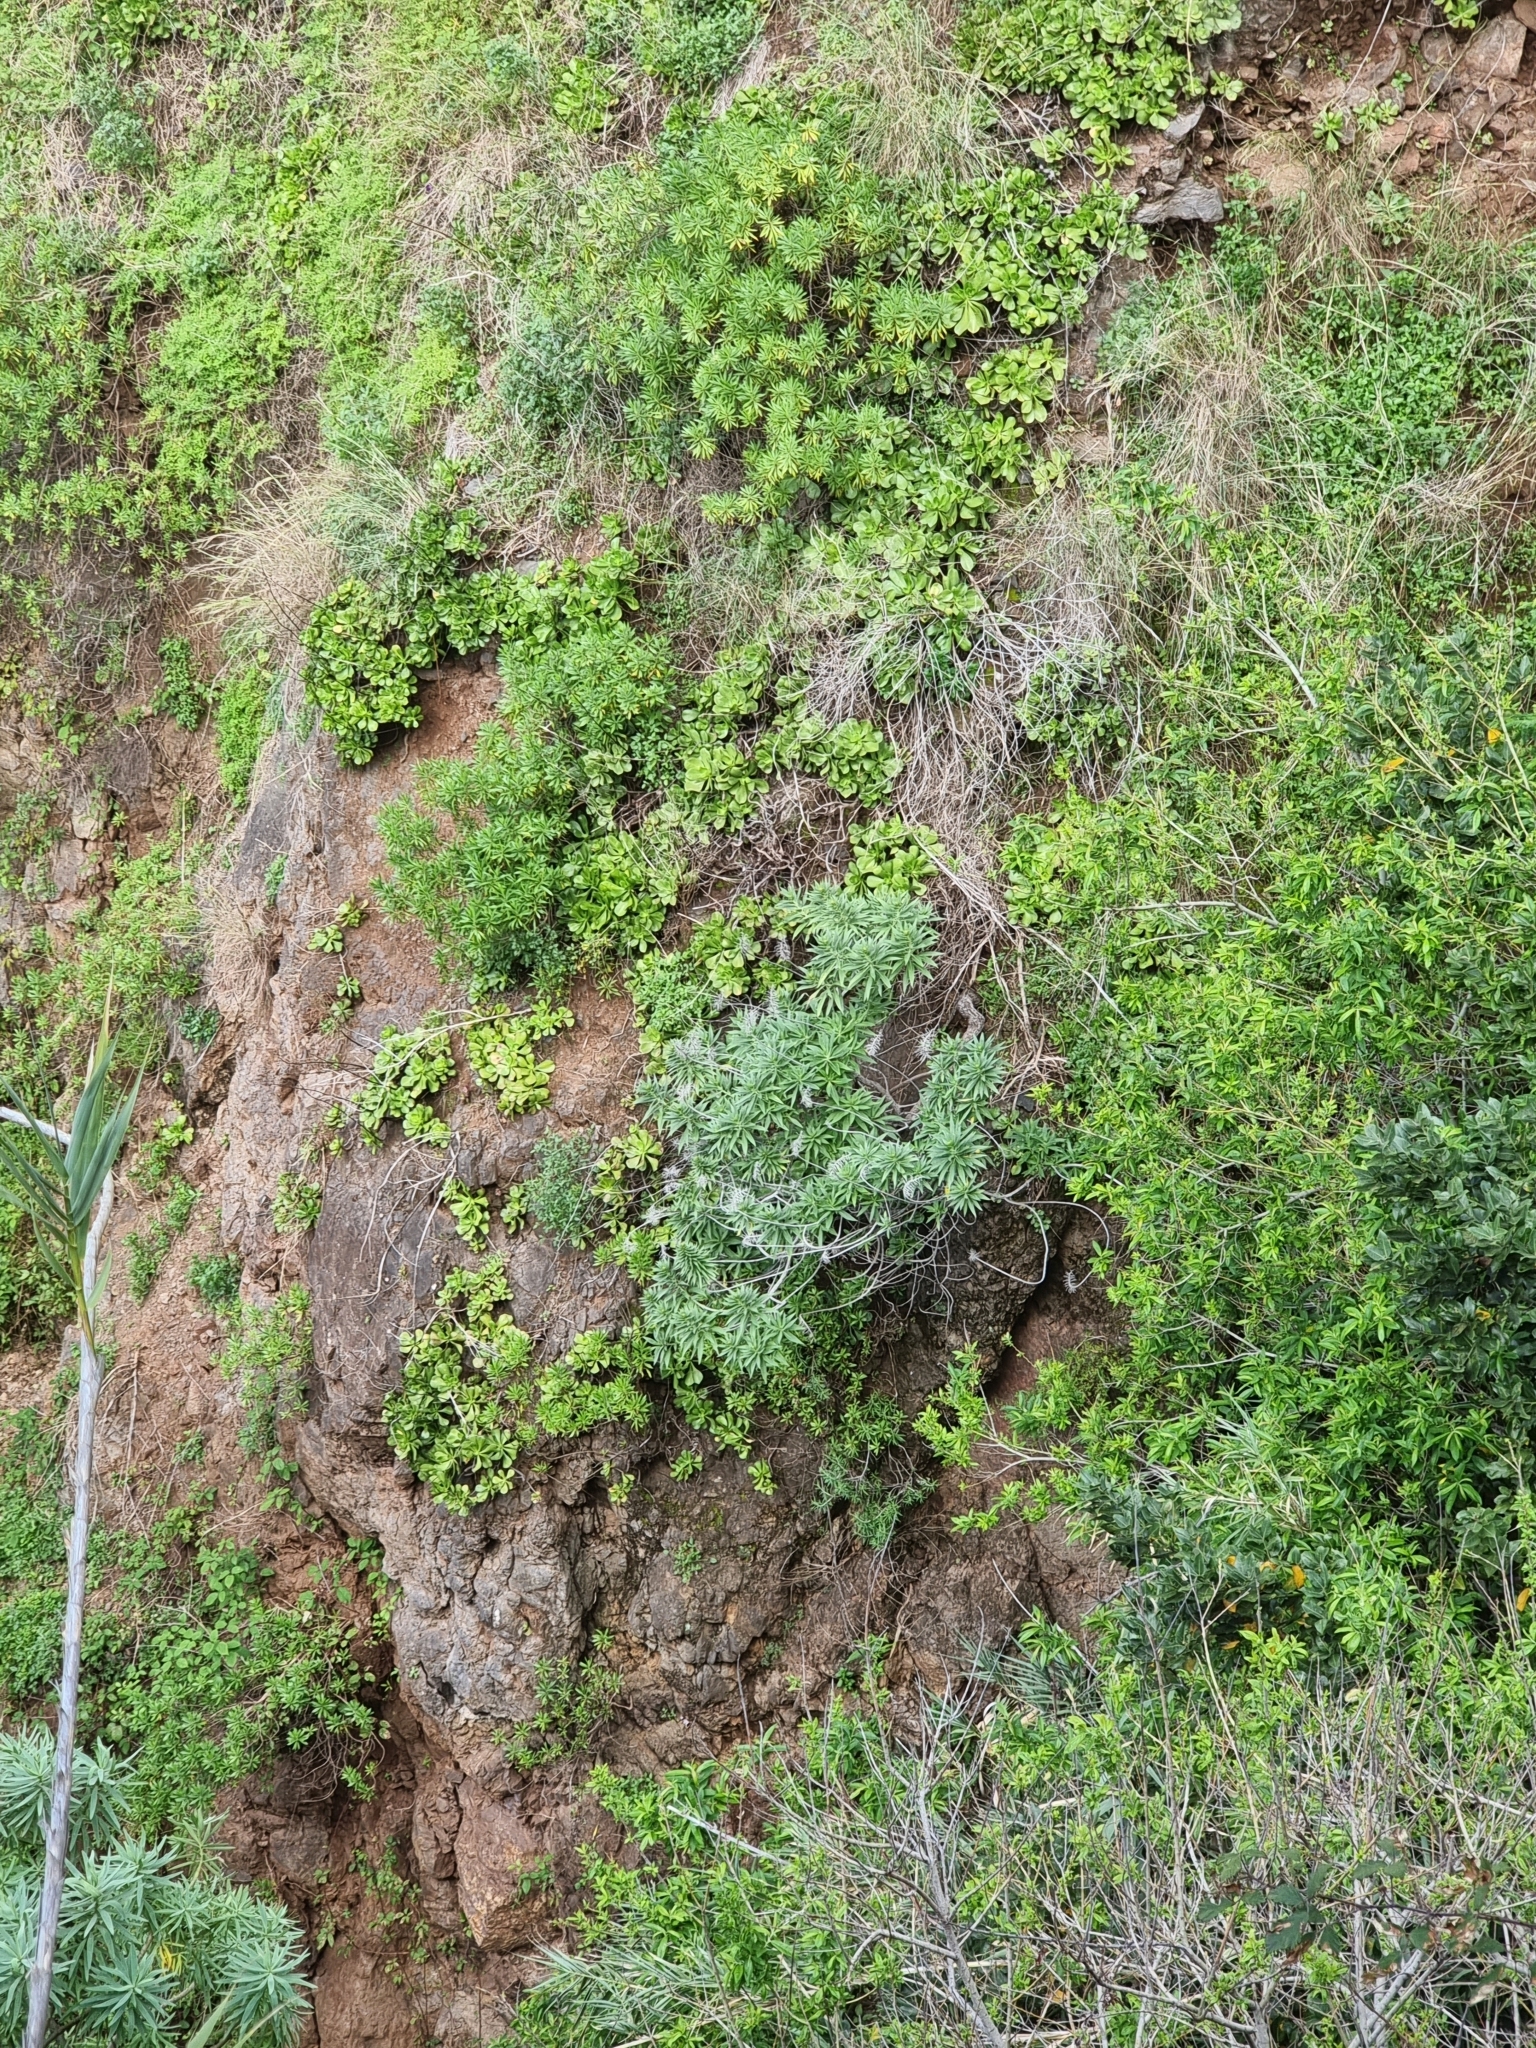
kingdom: Plantae
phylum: Tracheophyta
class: Magnoliopsida
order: Boraginales
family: Boraginaceae
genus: Echium
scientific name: Echium nervosum
